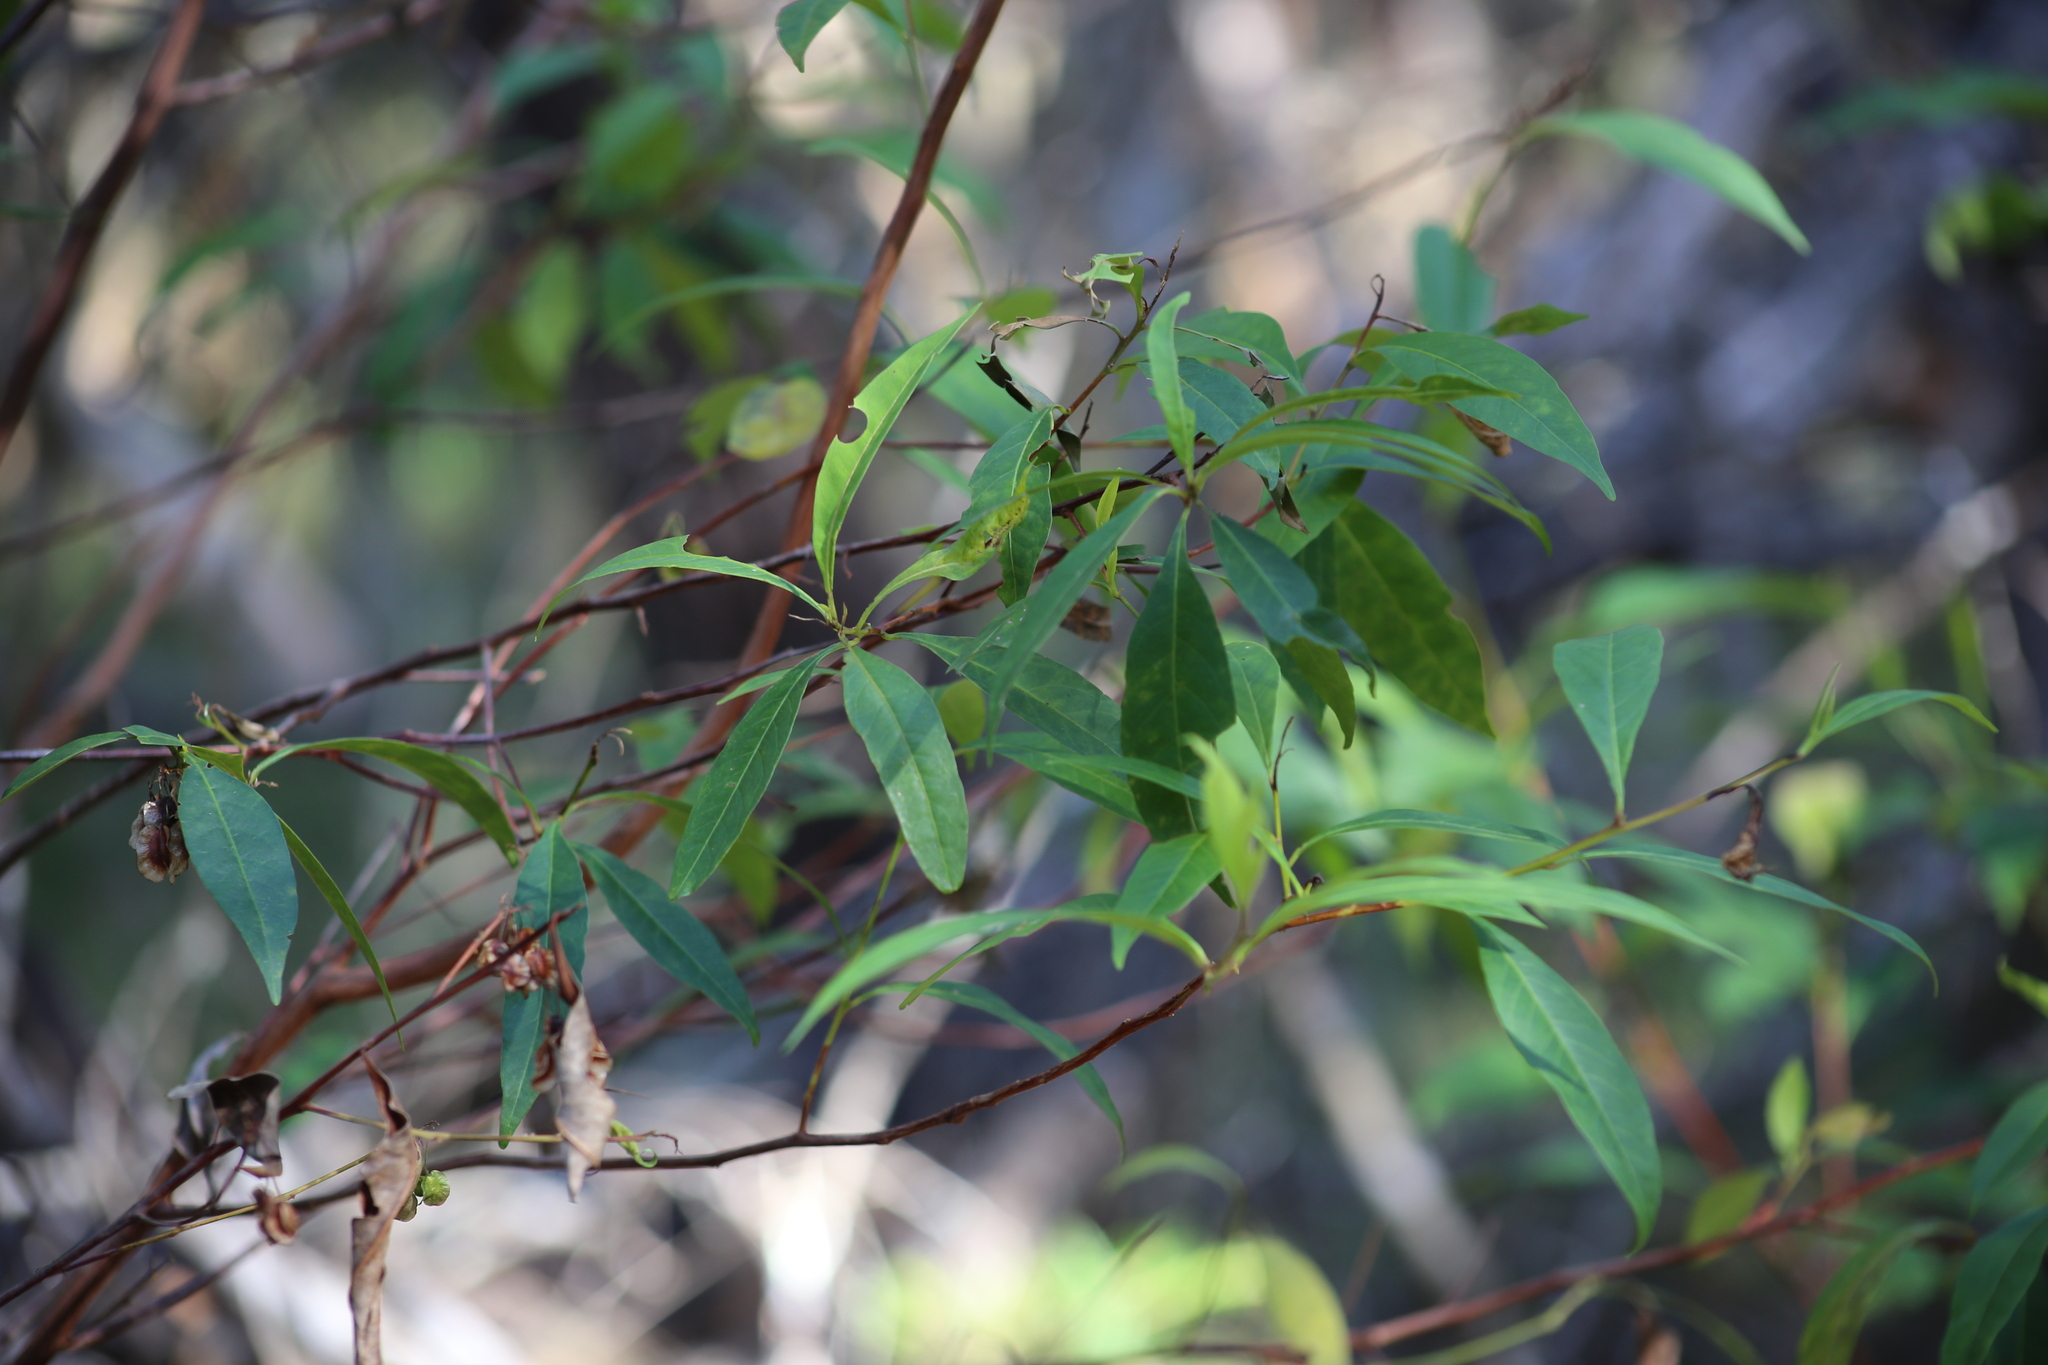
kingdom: Plantae
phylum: Tracheophyta
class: Magnoliopsida
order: Sapindales
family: Sapindaceae
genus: Dodonaea
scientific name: Dodonaea triquetra
